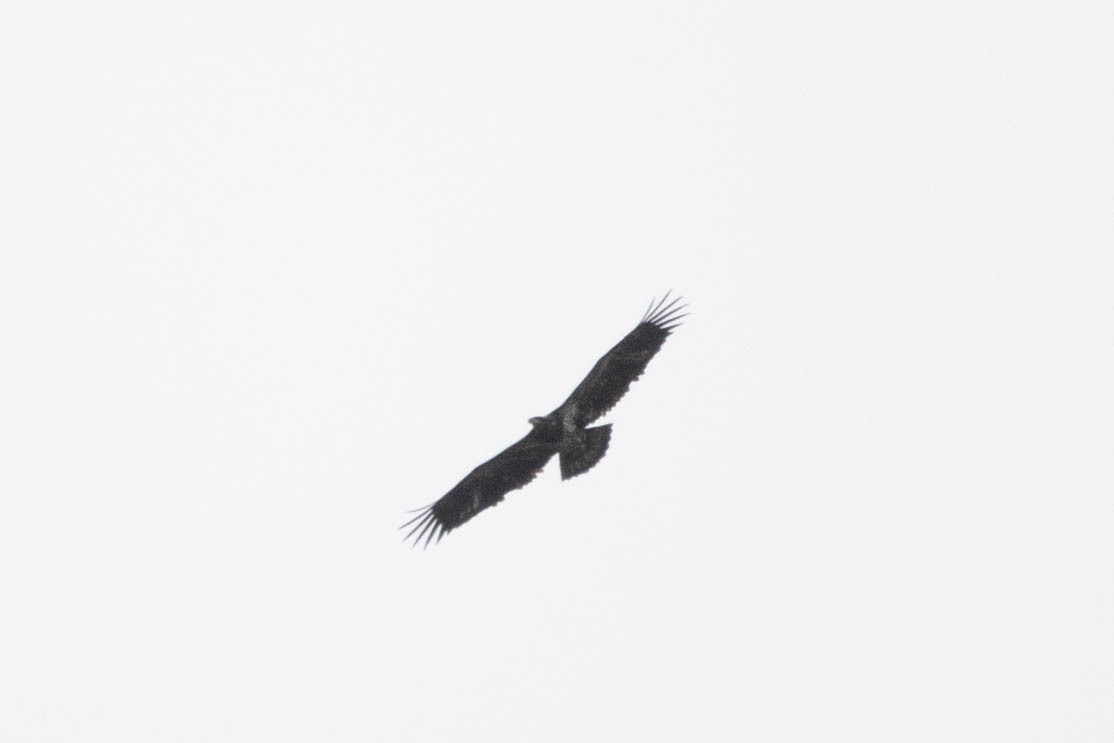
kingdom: Animalia
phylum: Chordata
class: Aves
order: Accipitriformes
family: Accipitridae
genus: Haliaeetus
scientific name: Haliaeetus leucocephalus
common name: Bald eagle
